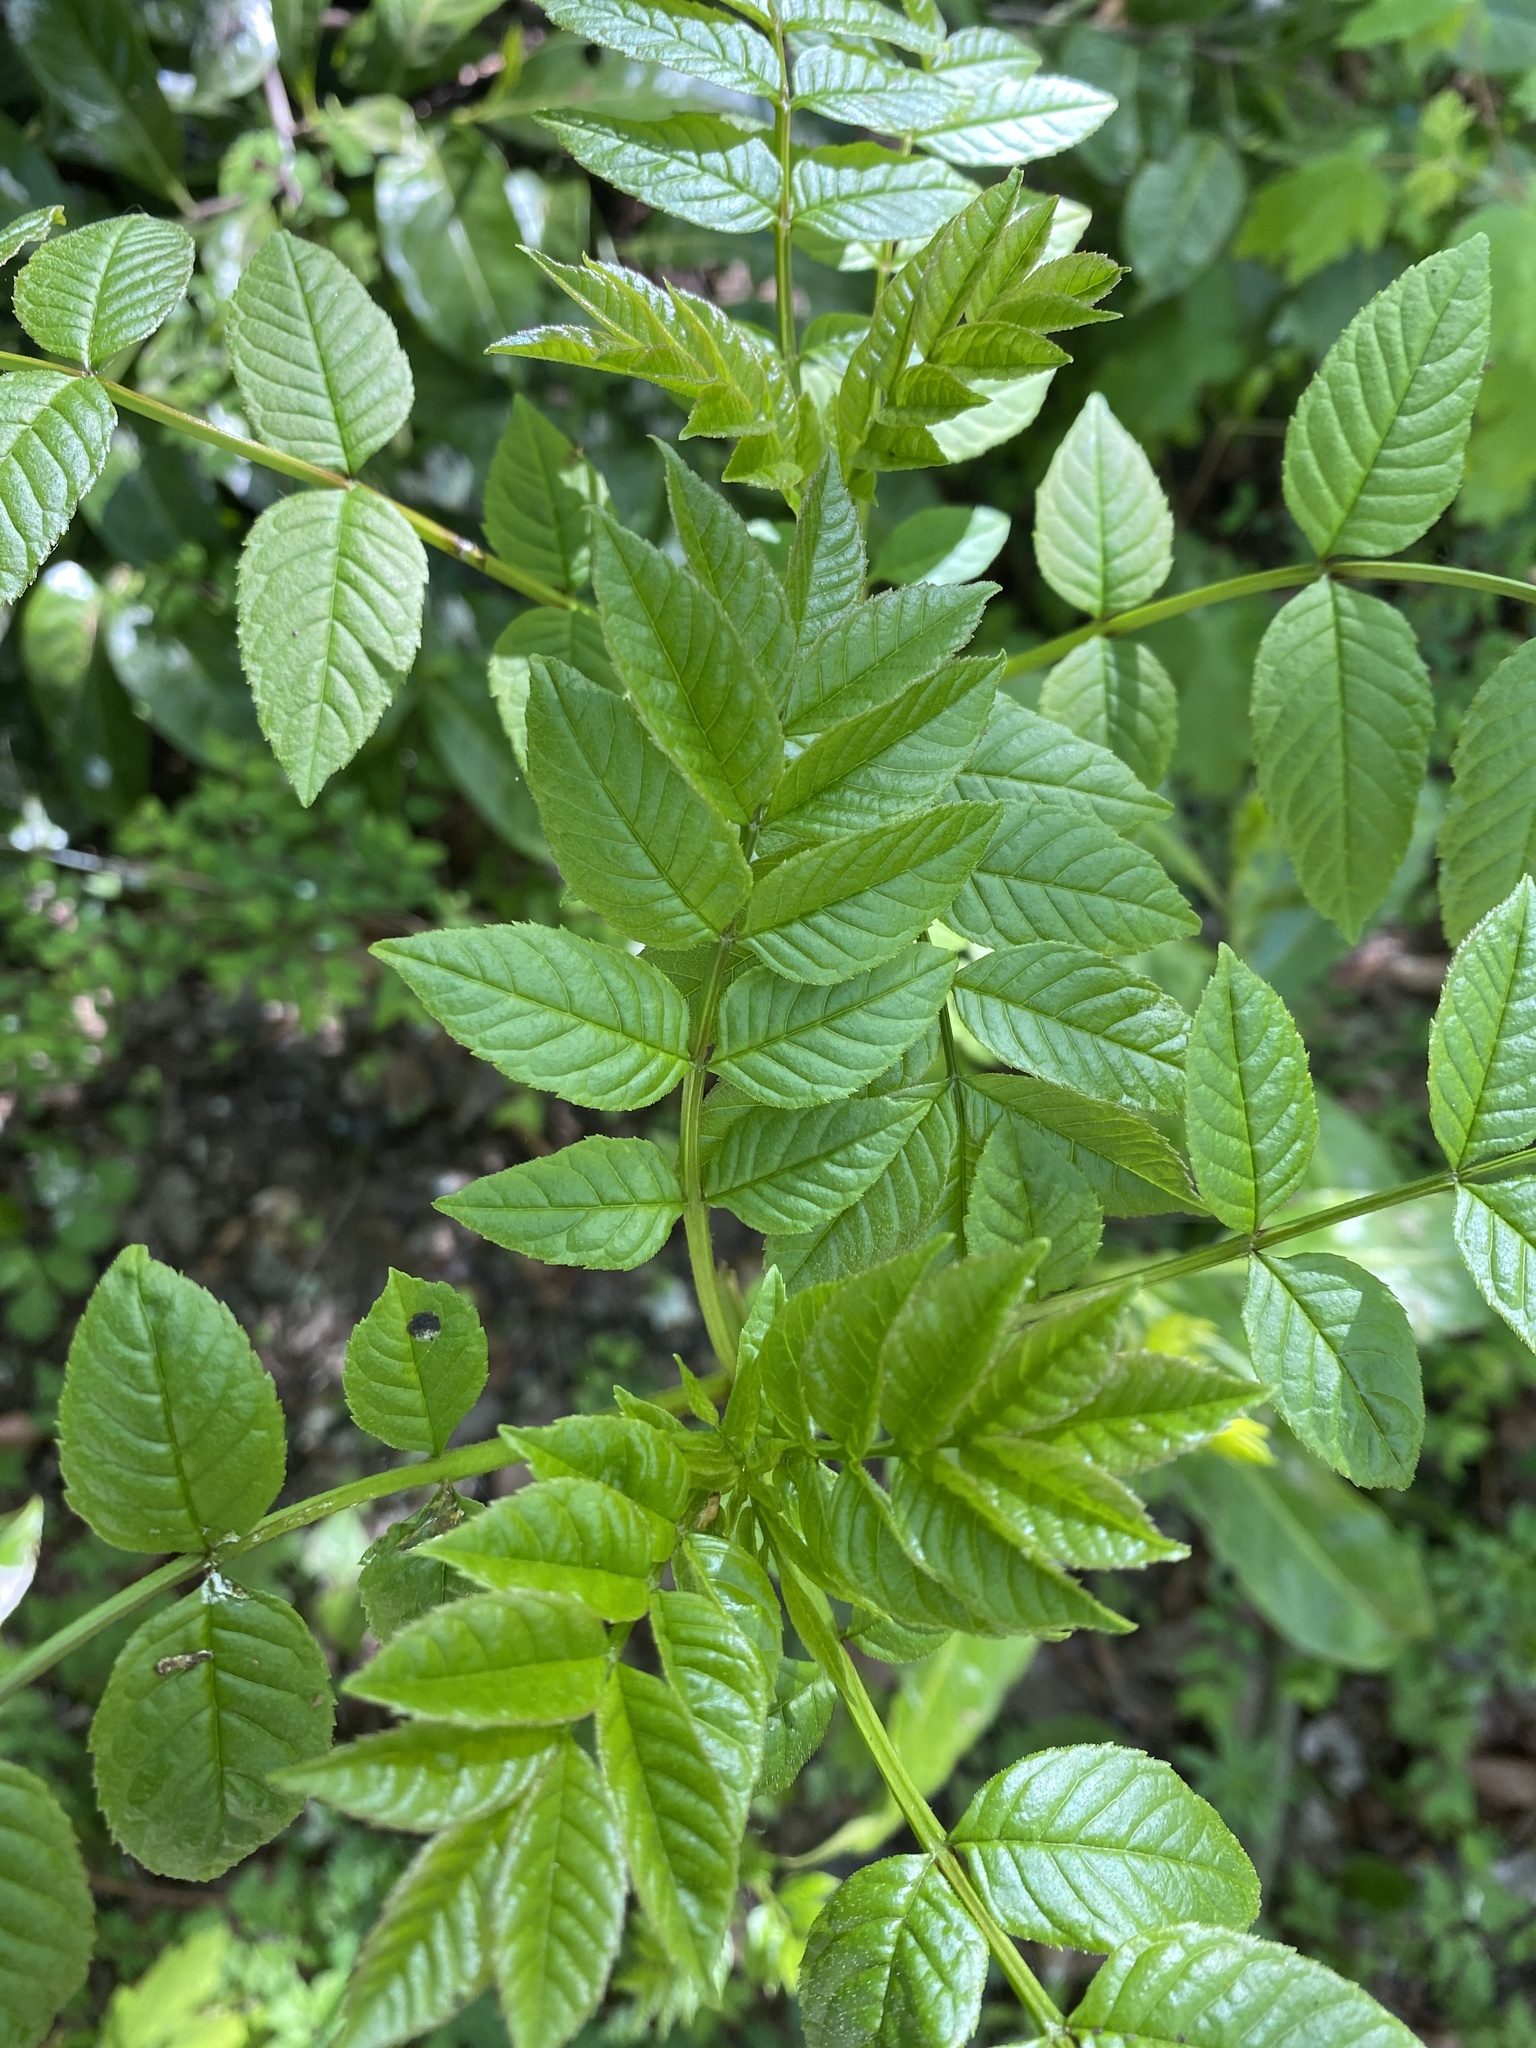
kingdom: Plantae
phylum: Tracheophyta
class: Magnoliopsida
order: Lamiales
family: Oleaceae
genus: Fraxinus
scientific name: Fraxinus excelsior
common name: European ash
